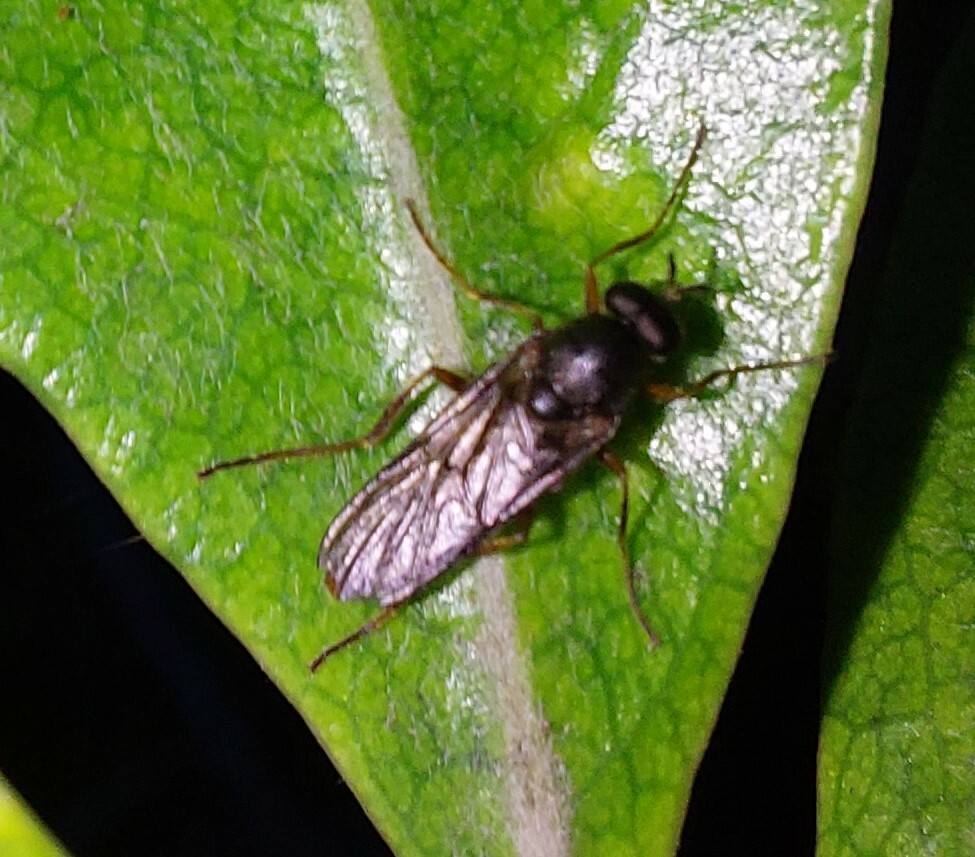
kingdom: Animalia
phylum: Arthropoda
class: Insecta
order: Diptera
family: Stratiomyidae
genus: Inopus
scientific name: Inopus rubriceps
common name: Soldier fly
